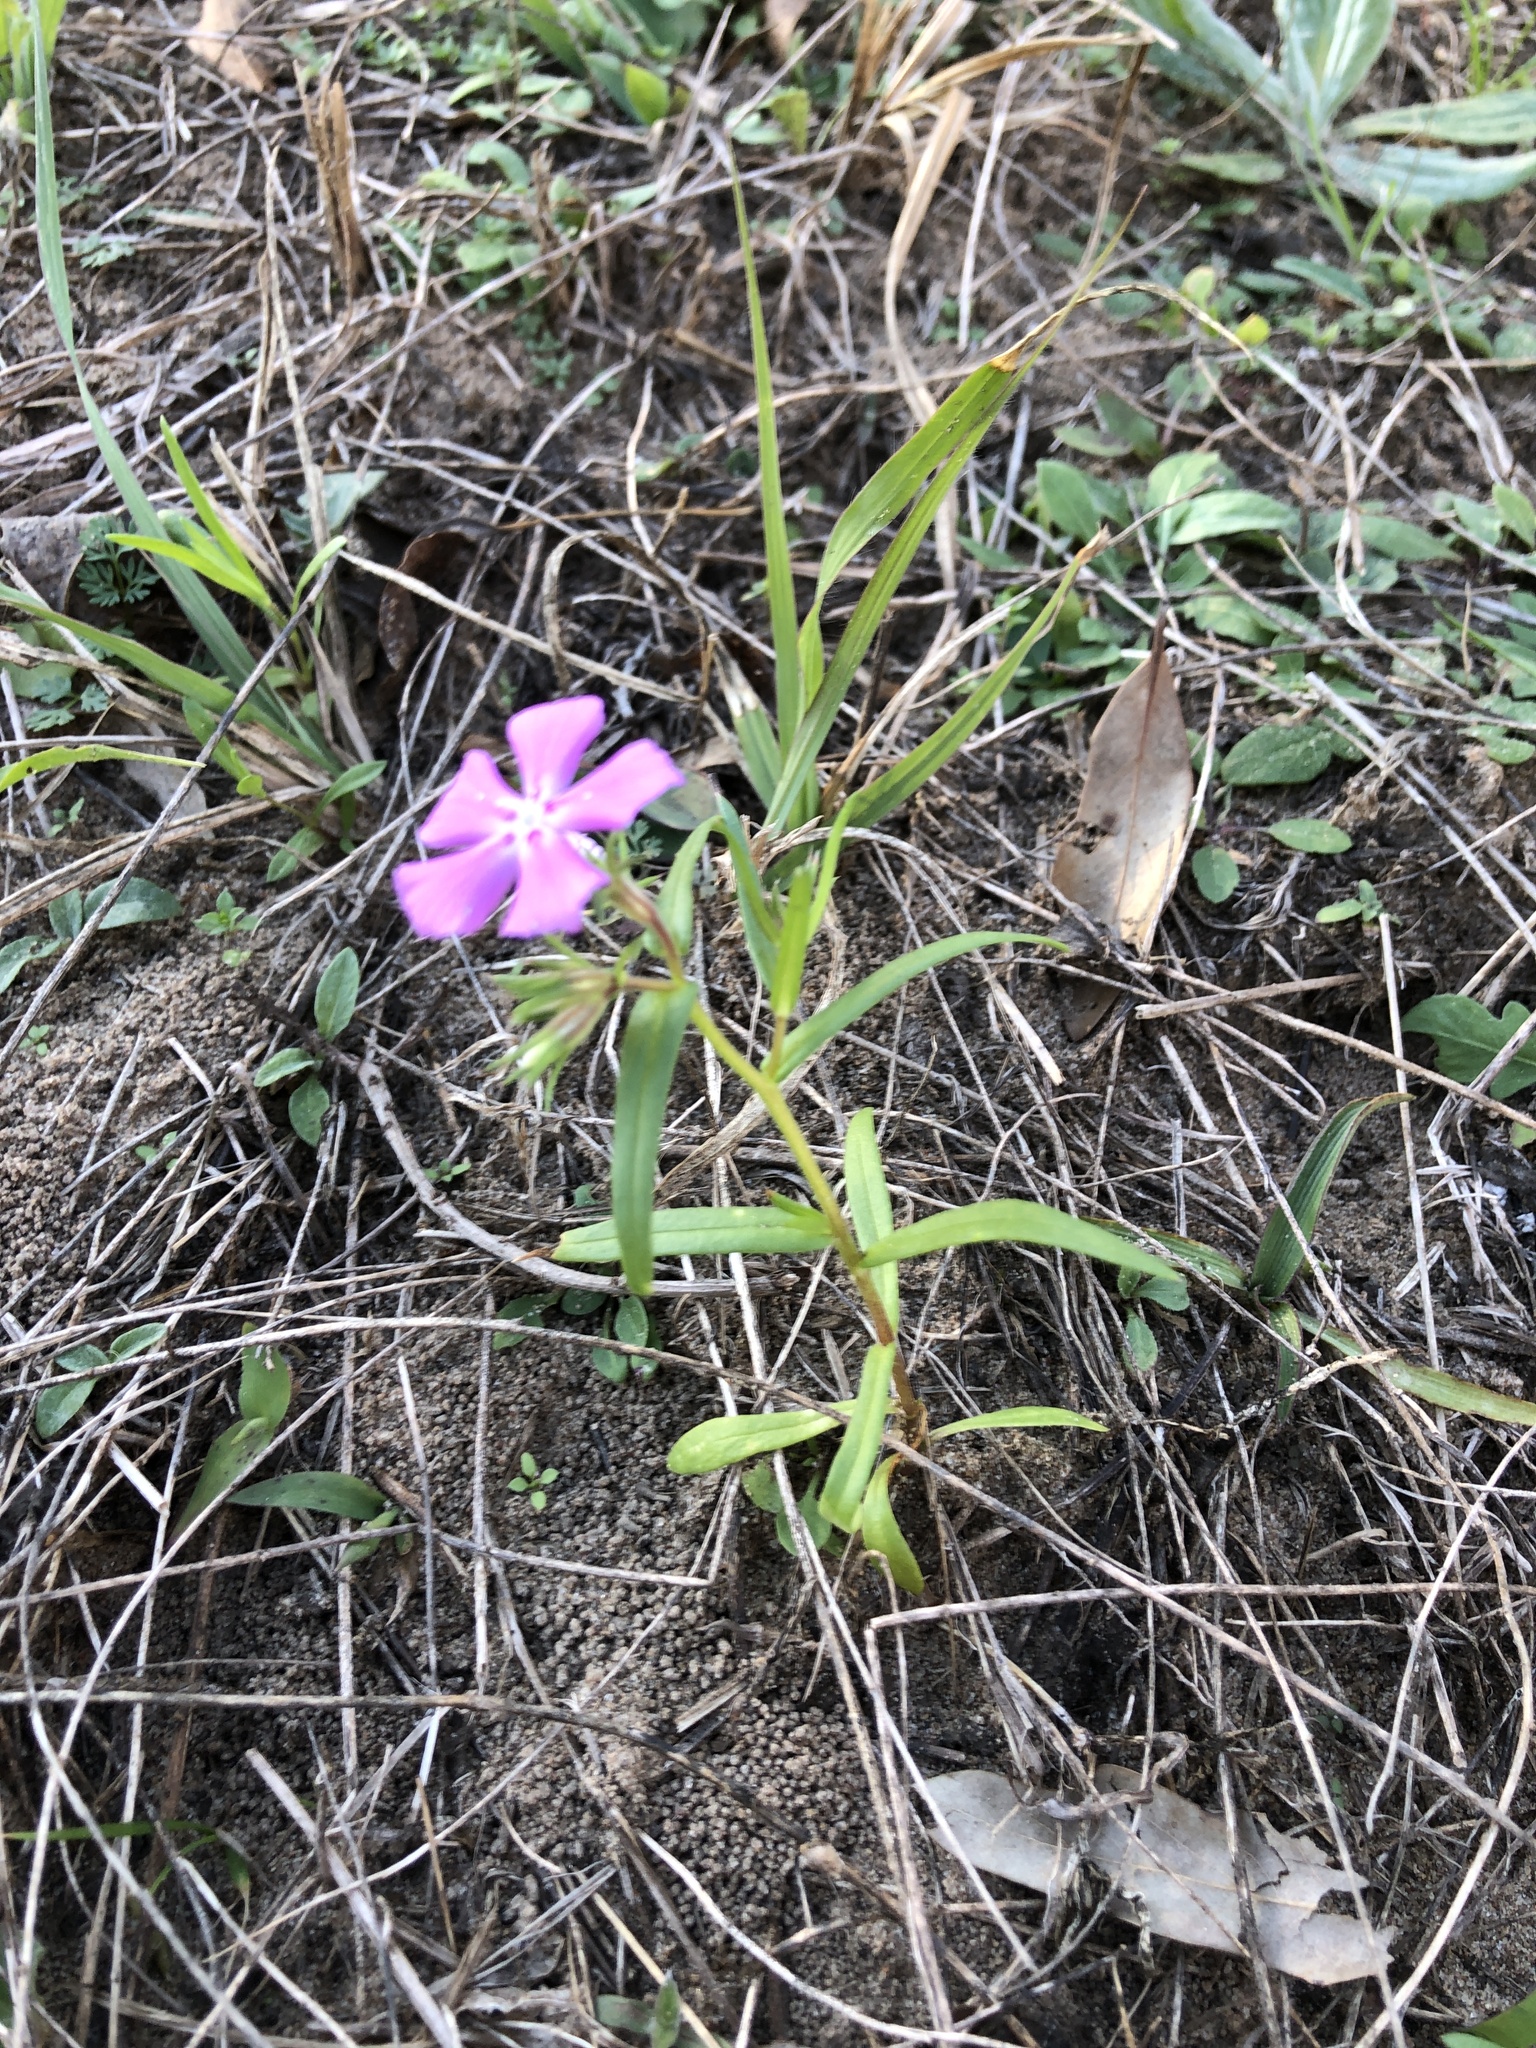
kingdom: Plantae
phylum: Tracheophyta
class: Magnoliopsida
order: Ericales
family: Polemoniaceae
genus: Phlox
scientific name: Phlox cuspidata
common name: Pointed phlox
